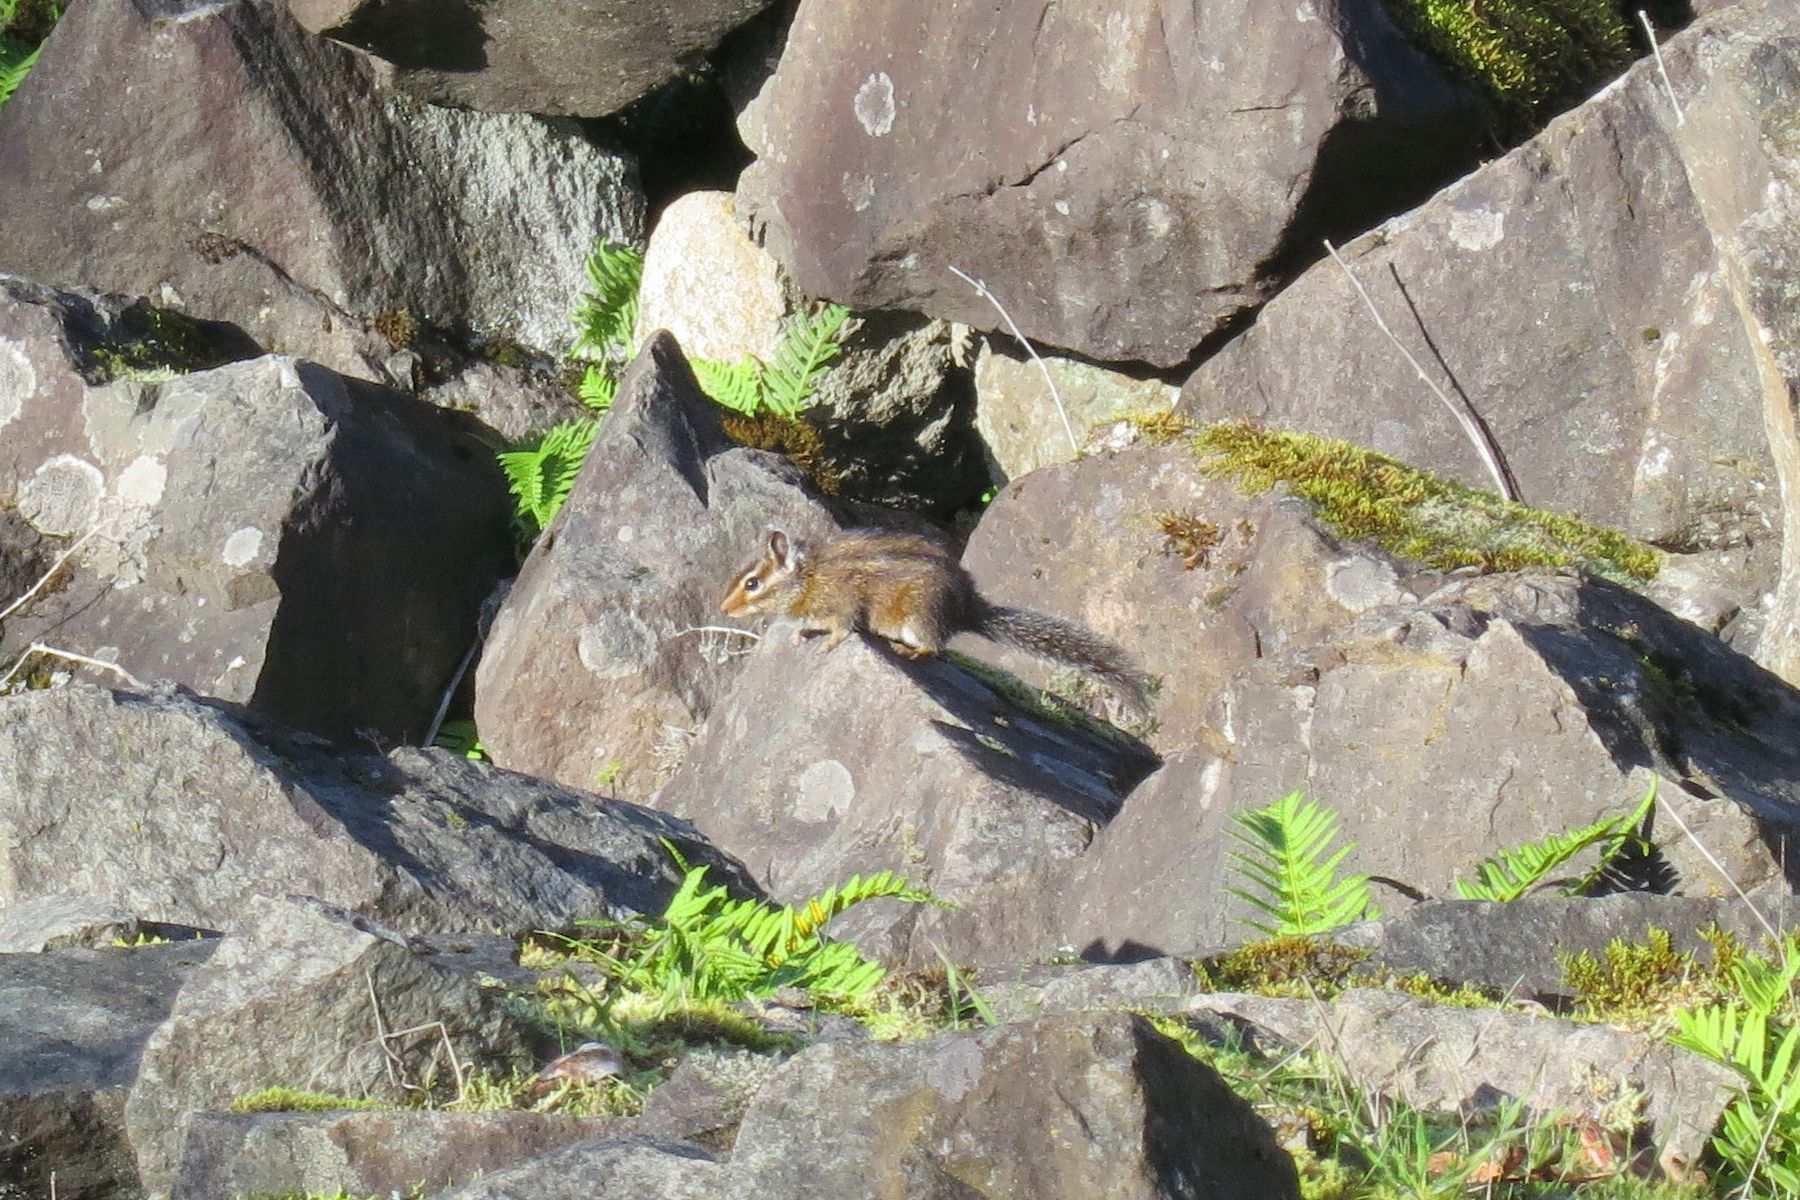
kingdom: Animalia
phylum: Chordata
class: Mammalia
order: Rodentia
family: Sciuridae
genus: Tamias
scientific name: Tamias townsendii
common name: Townsend's chipmunk
